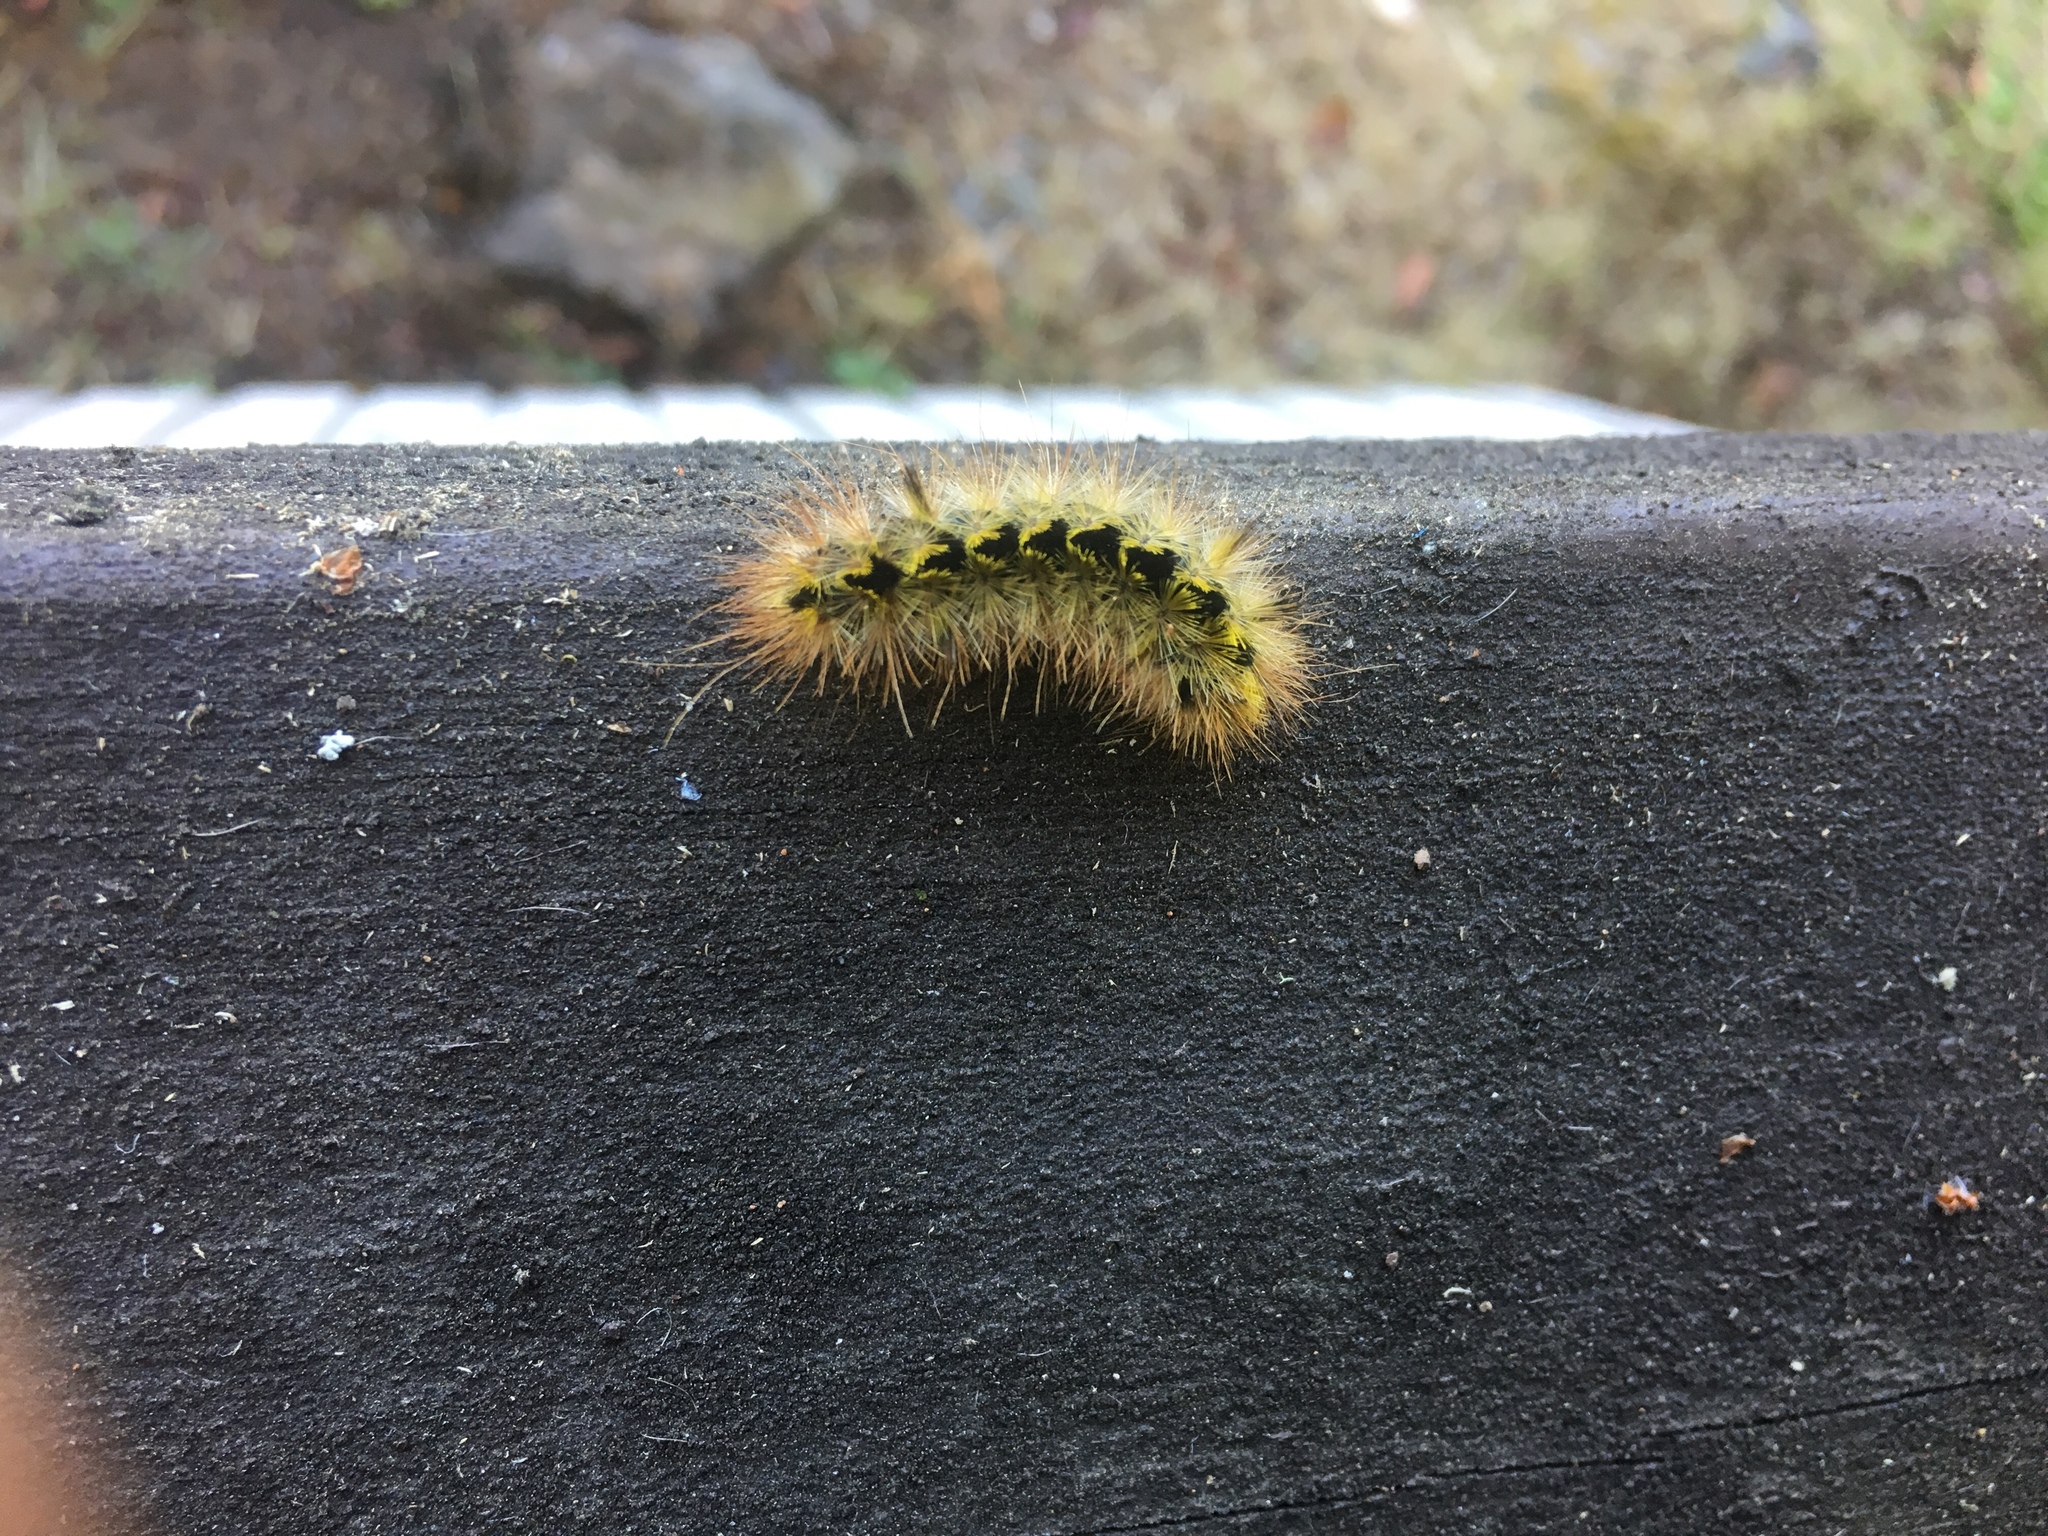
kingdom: Animalia
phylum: Arthropoda
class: Insecta
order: Lepidoptera
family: Erebidae
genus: Lophocampa
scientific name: Lophocampa argentata
